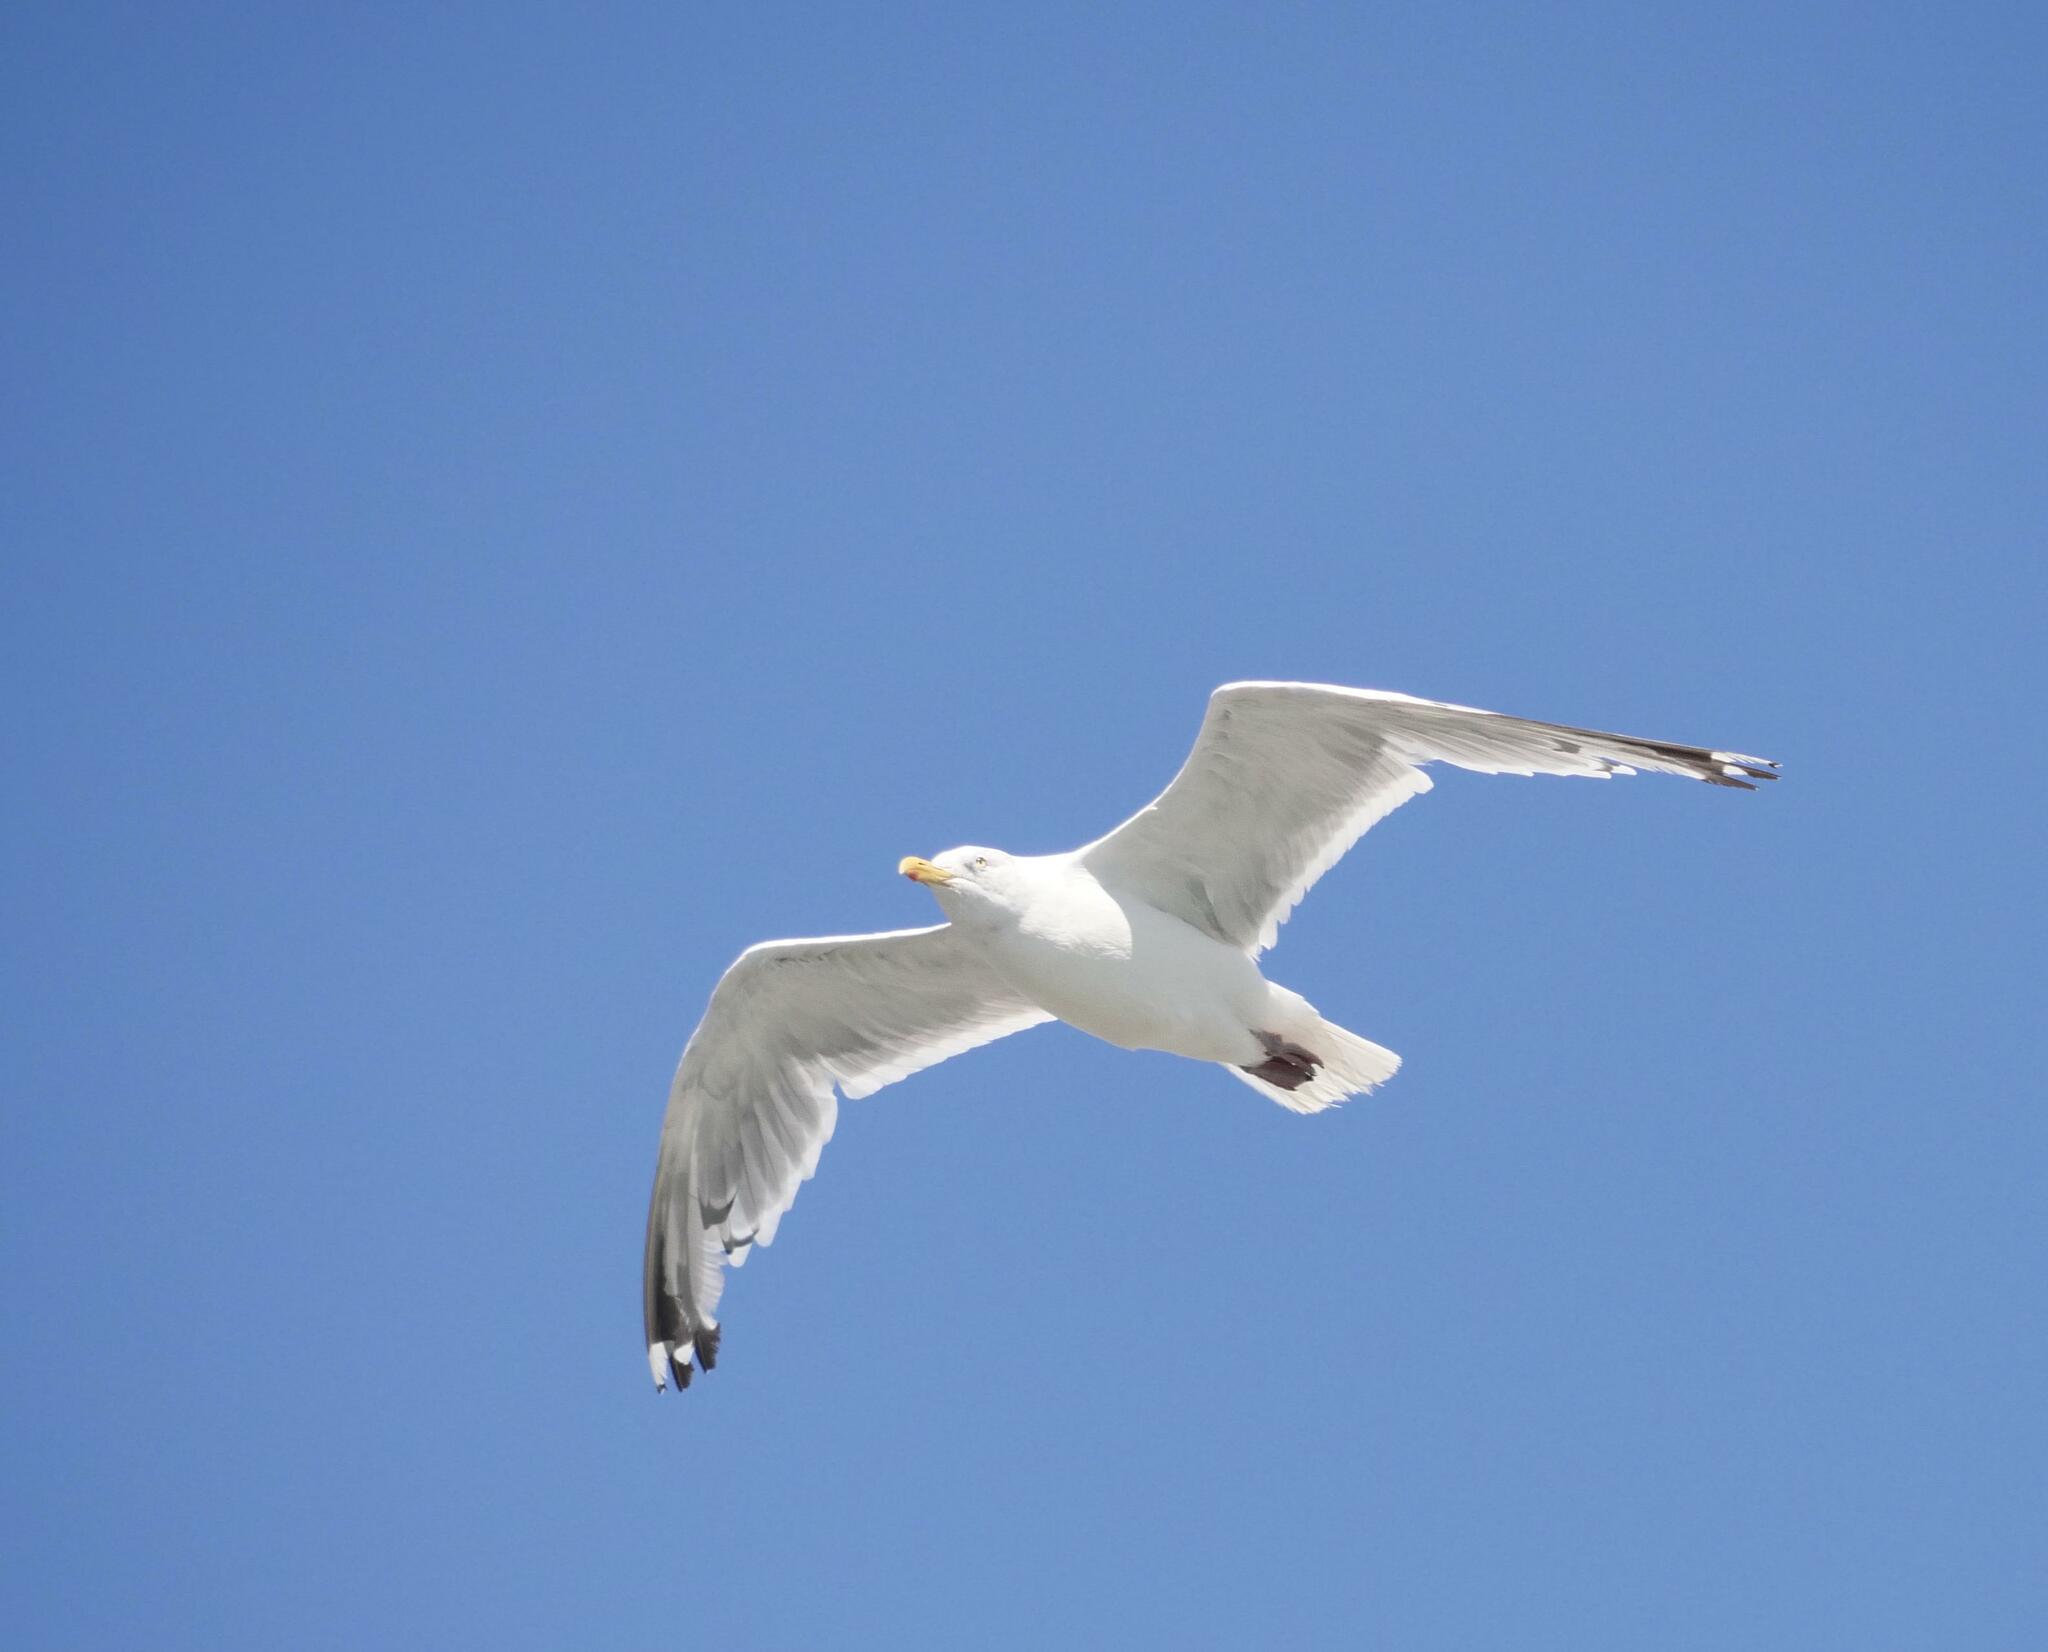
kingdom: Animalia
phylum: Chordata
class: Aves
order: Charadriiformes
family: Laridae
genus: Larus
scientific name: Larus argentatus
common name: Herring gull
